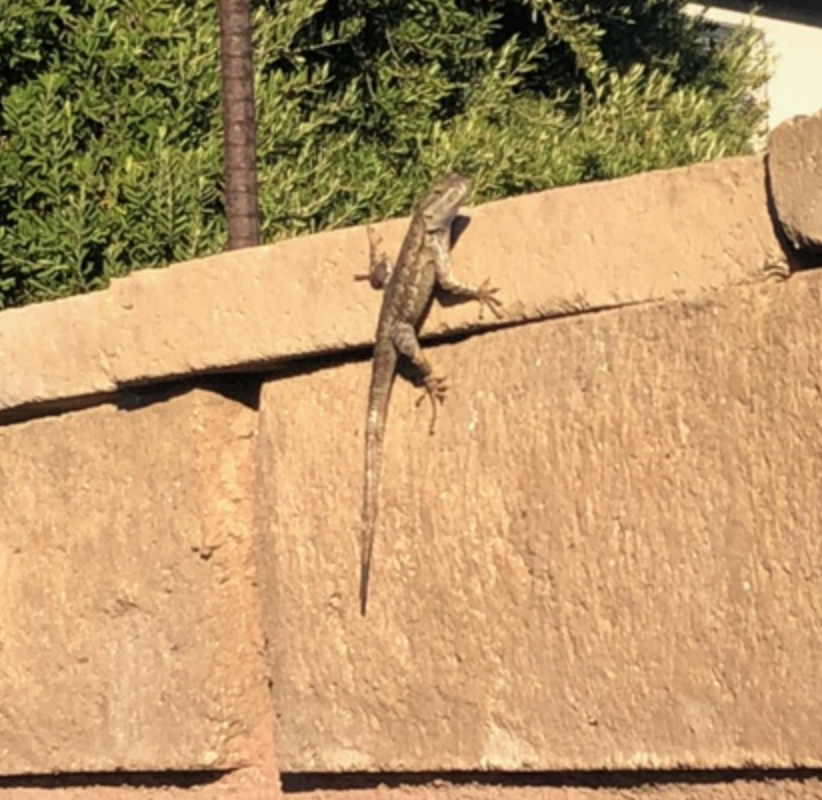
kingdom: Animalia
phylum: Chordata
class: Squamata
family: Phrynosomatidae
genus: Sceloporus
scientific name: Sceloporus occidentalis
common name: Western fence lizard
